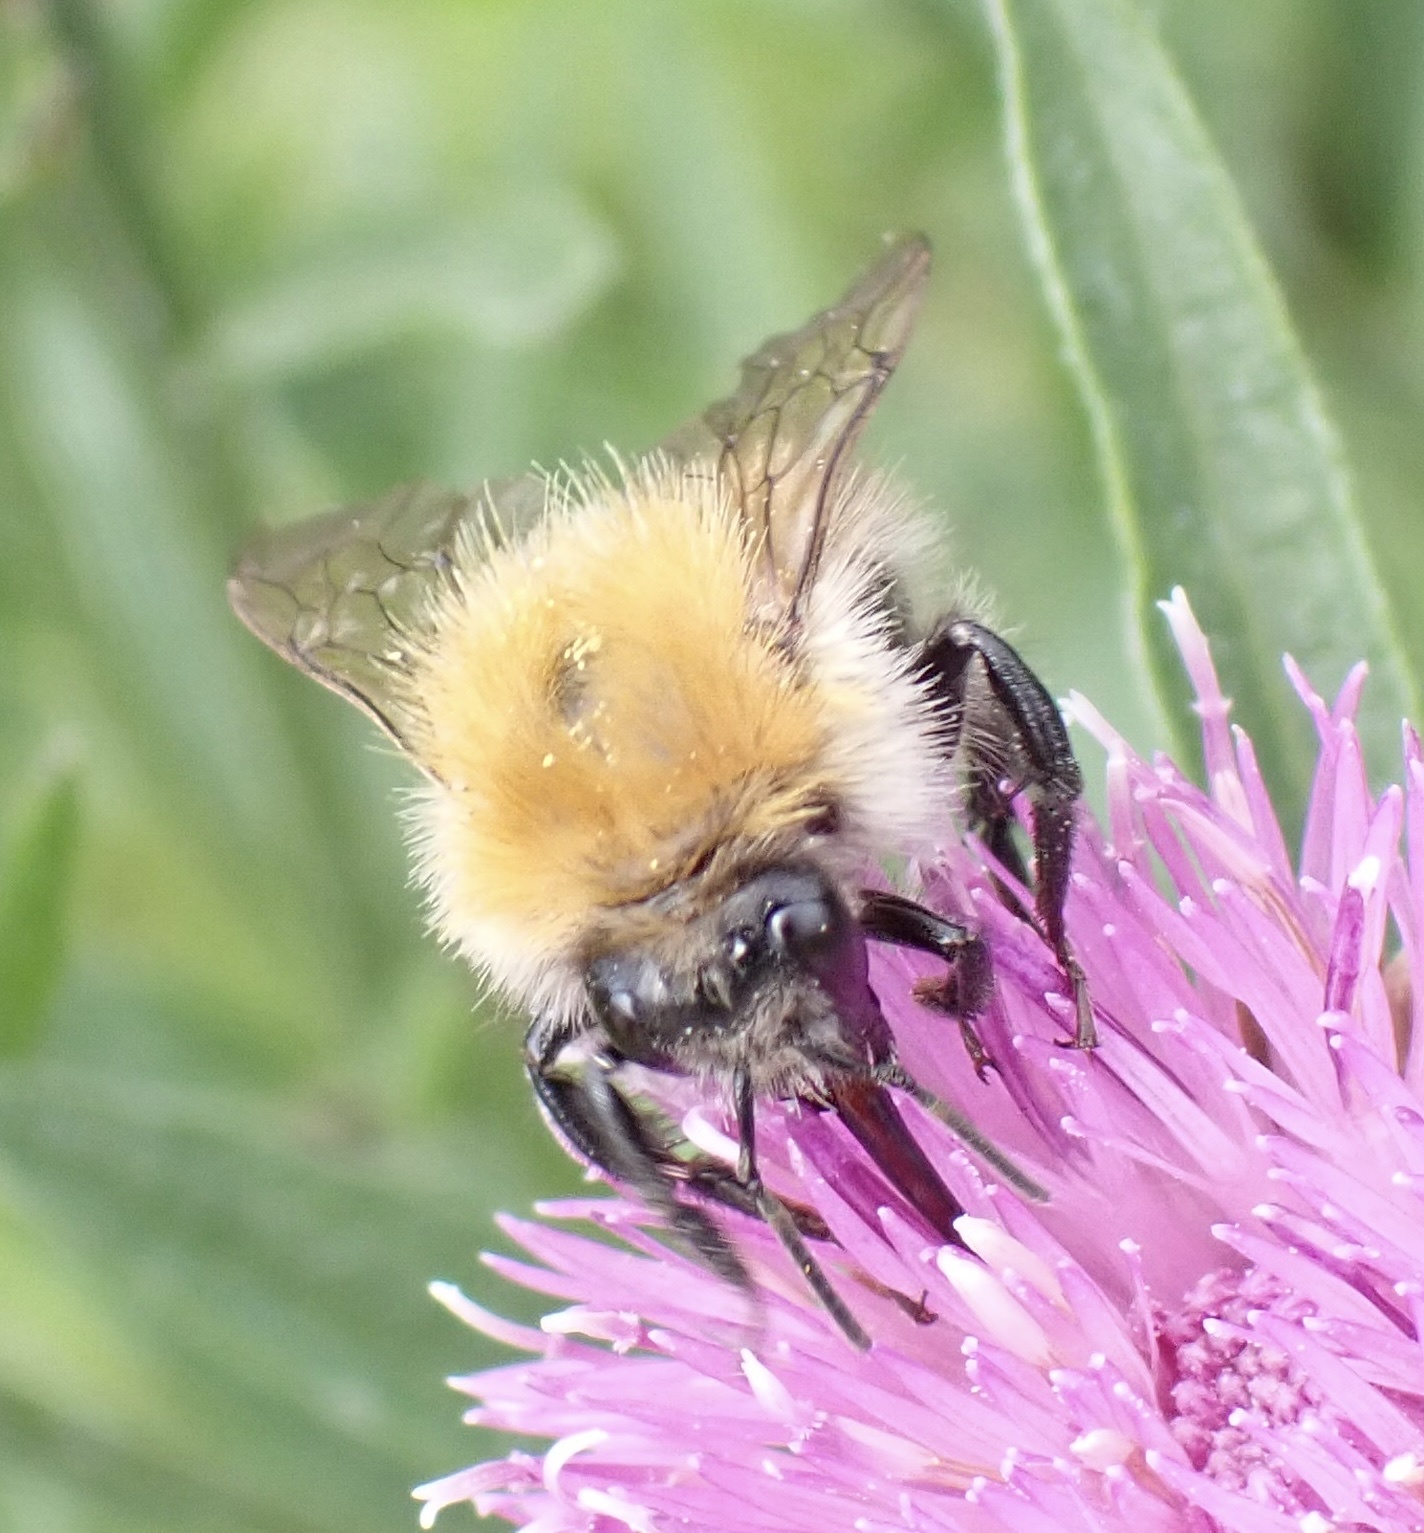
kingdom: Animalia
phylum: Arthropoda
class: Insecta
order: Hymenoptera
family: Apidae
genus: Bombus
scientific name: Bombus pascuorum
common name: Common carder bee
